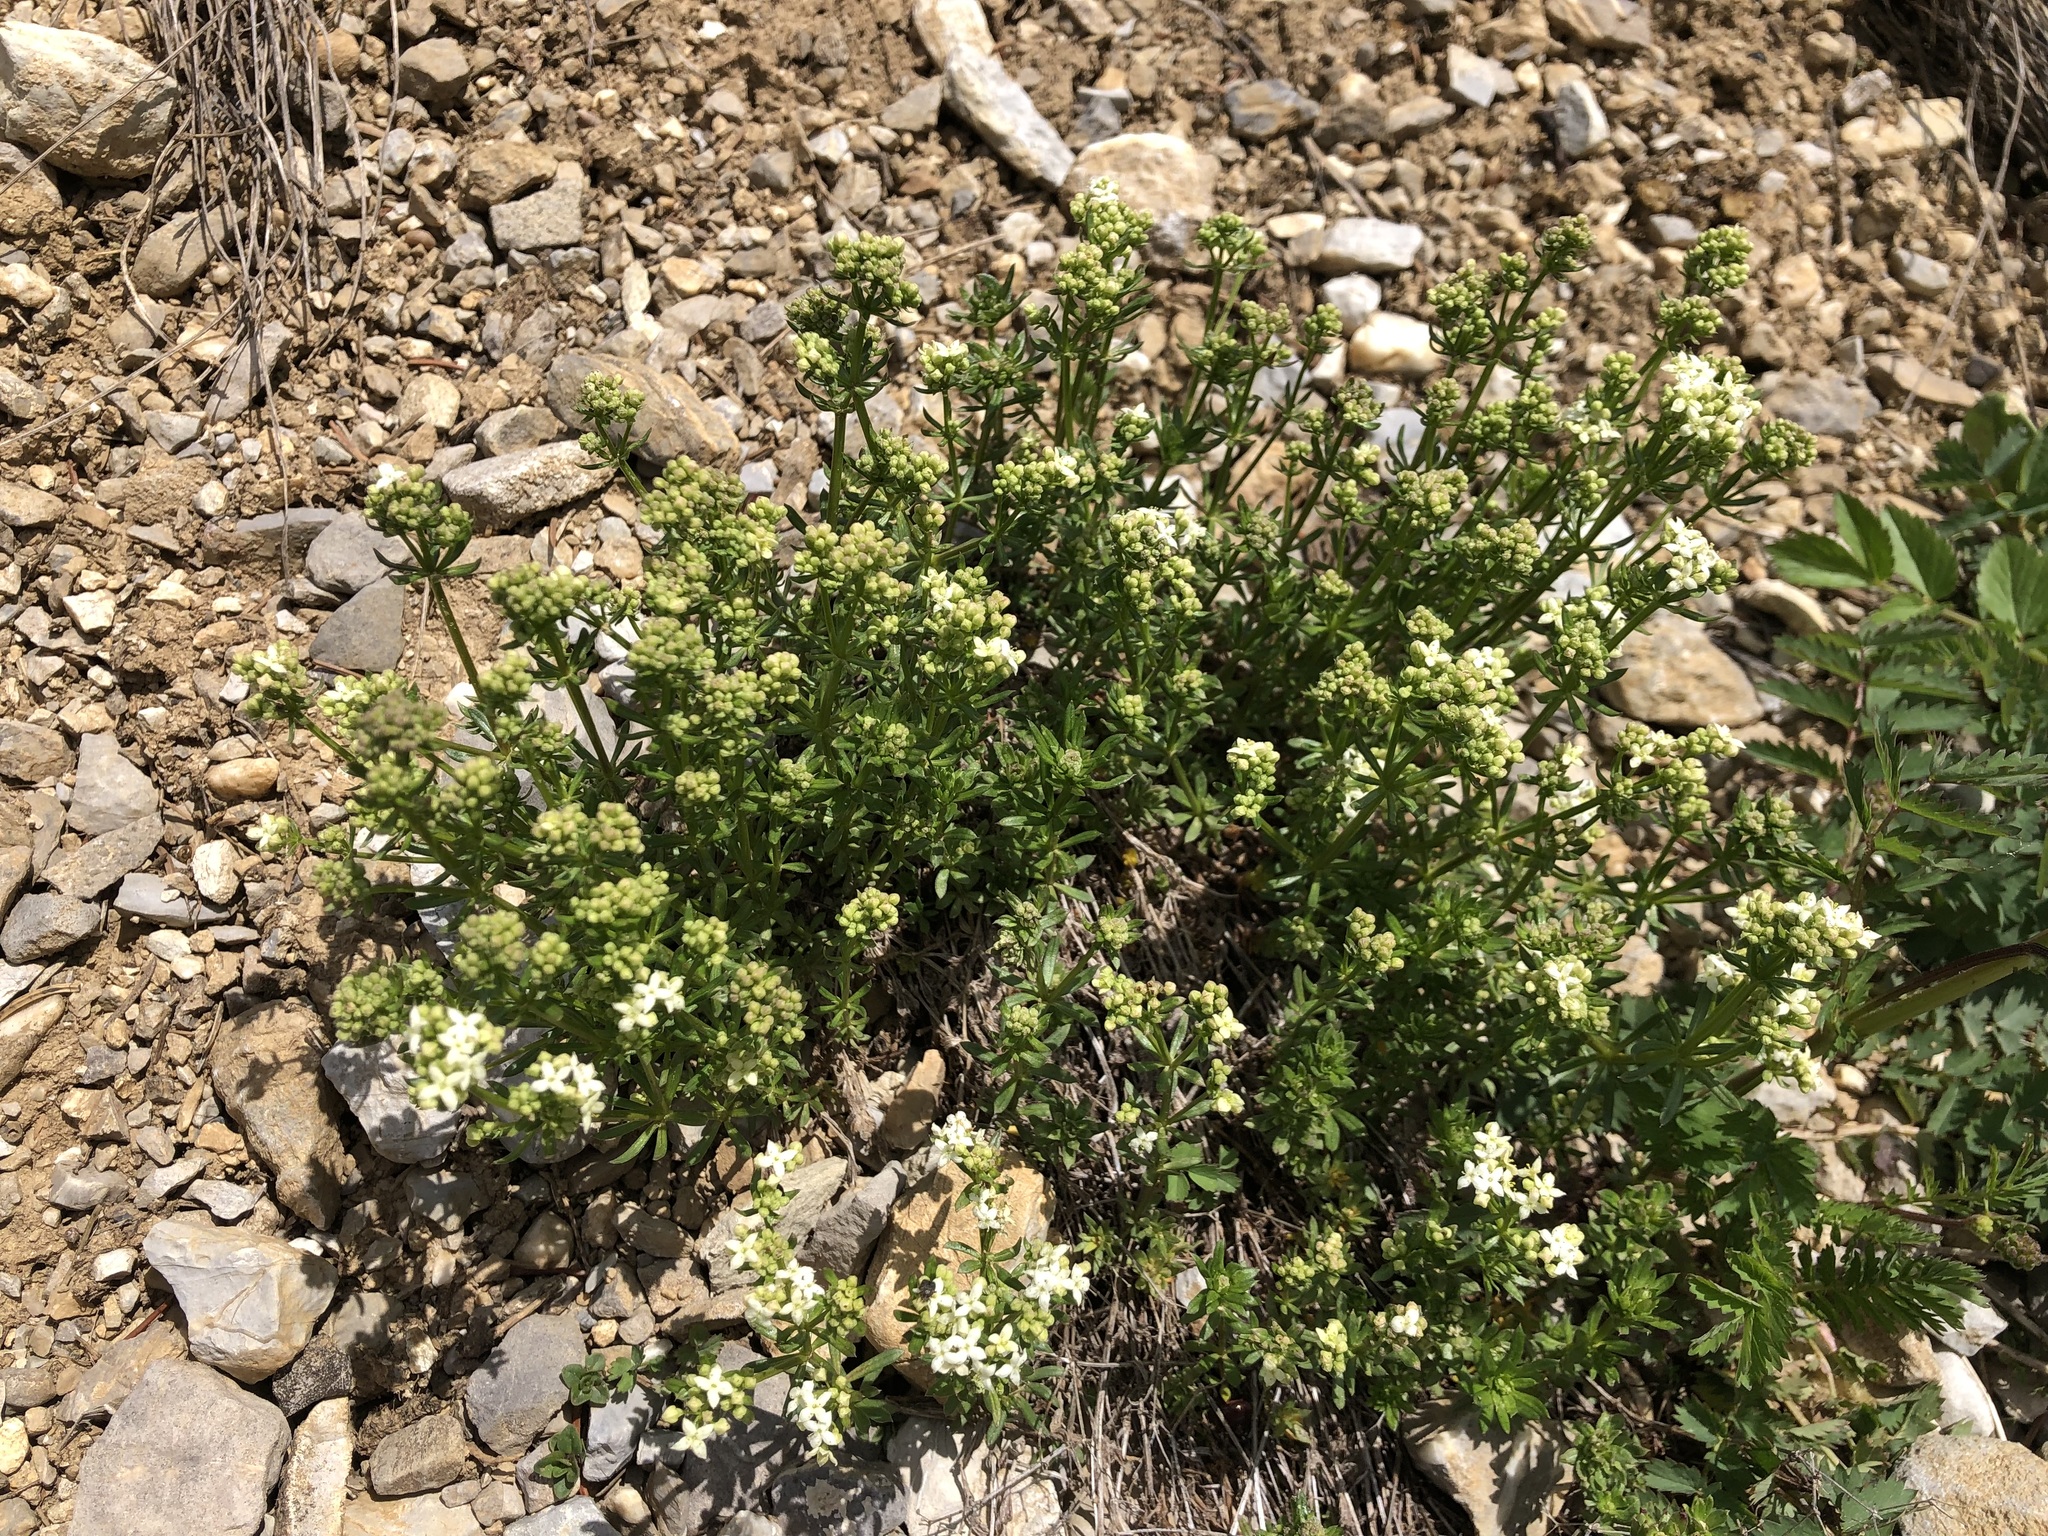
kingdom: Plantae
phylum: Tracheophyta
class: Magnoliopsida
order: Gentianales
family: Rubiaceae
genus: Galium
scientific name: Galium anisophyllon
